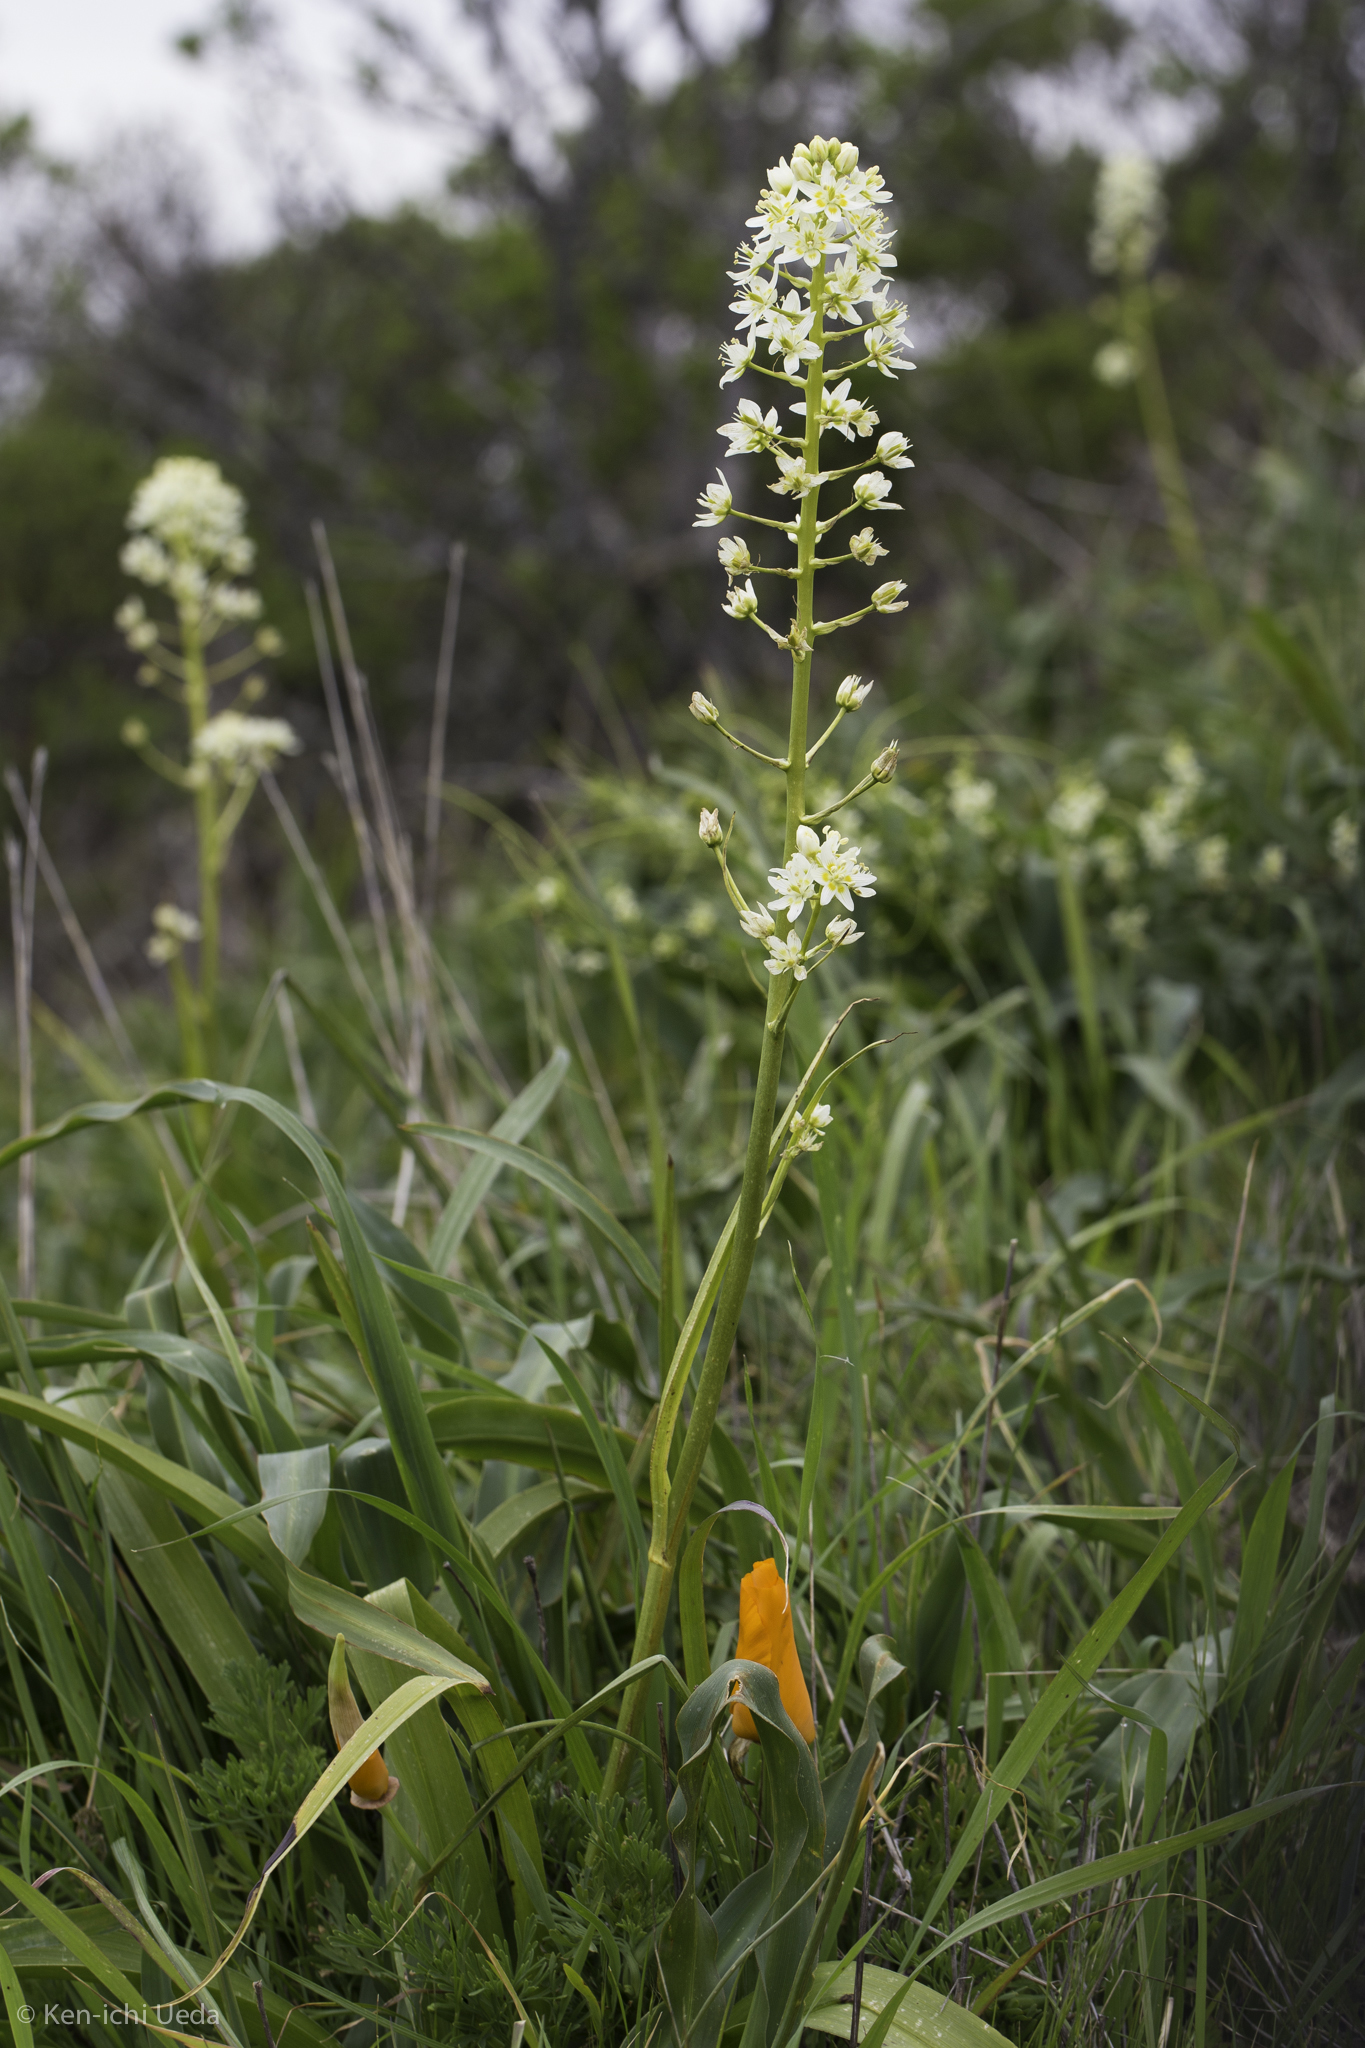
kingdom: Plantae
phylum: Tracheophyta
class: Liliopsida
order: Liliales
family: Melanthiaceae
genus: Toxicoscordion
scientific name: Toxicoscordion fremontii
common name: Fremont's death camas
